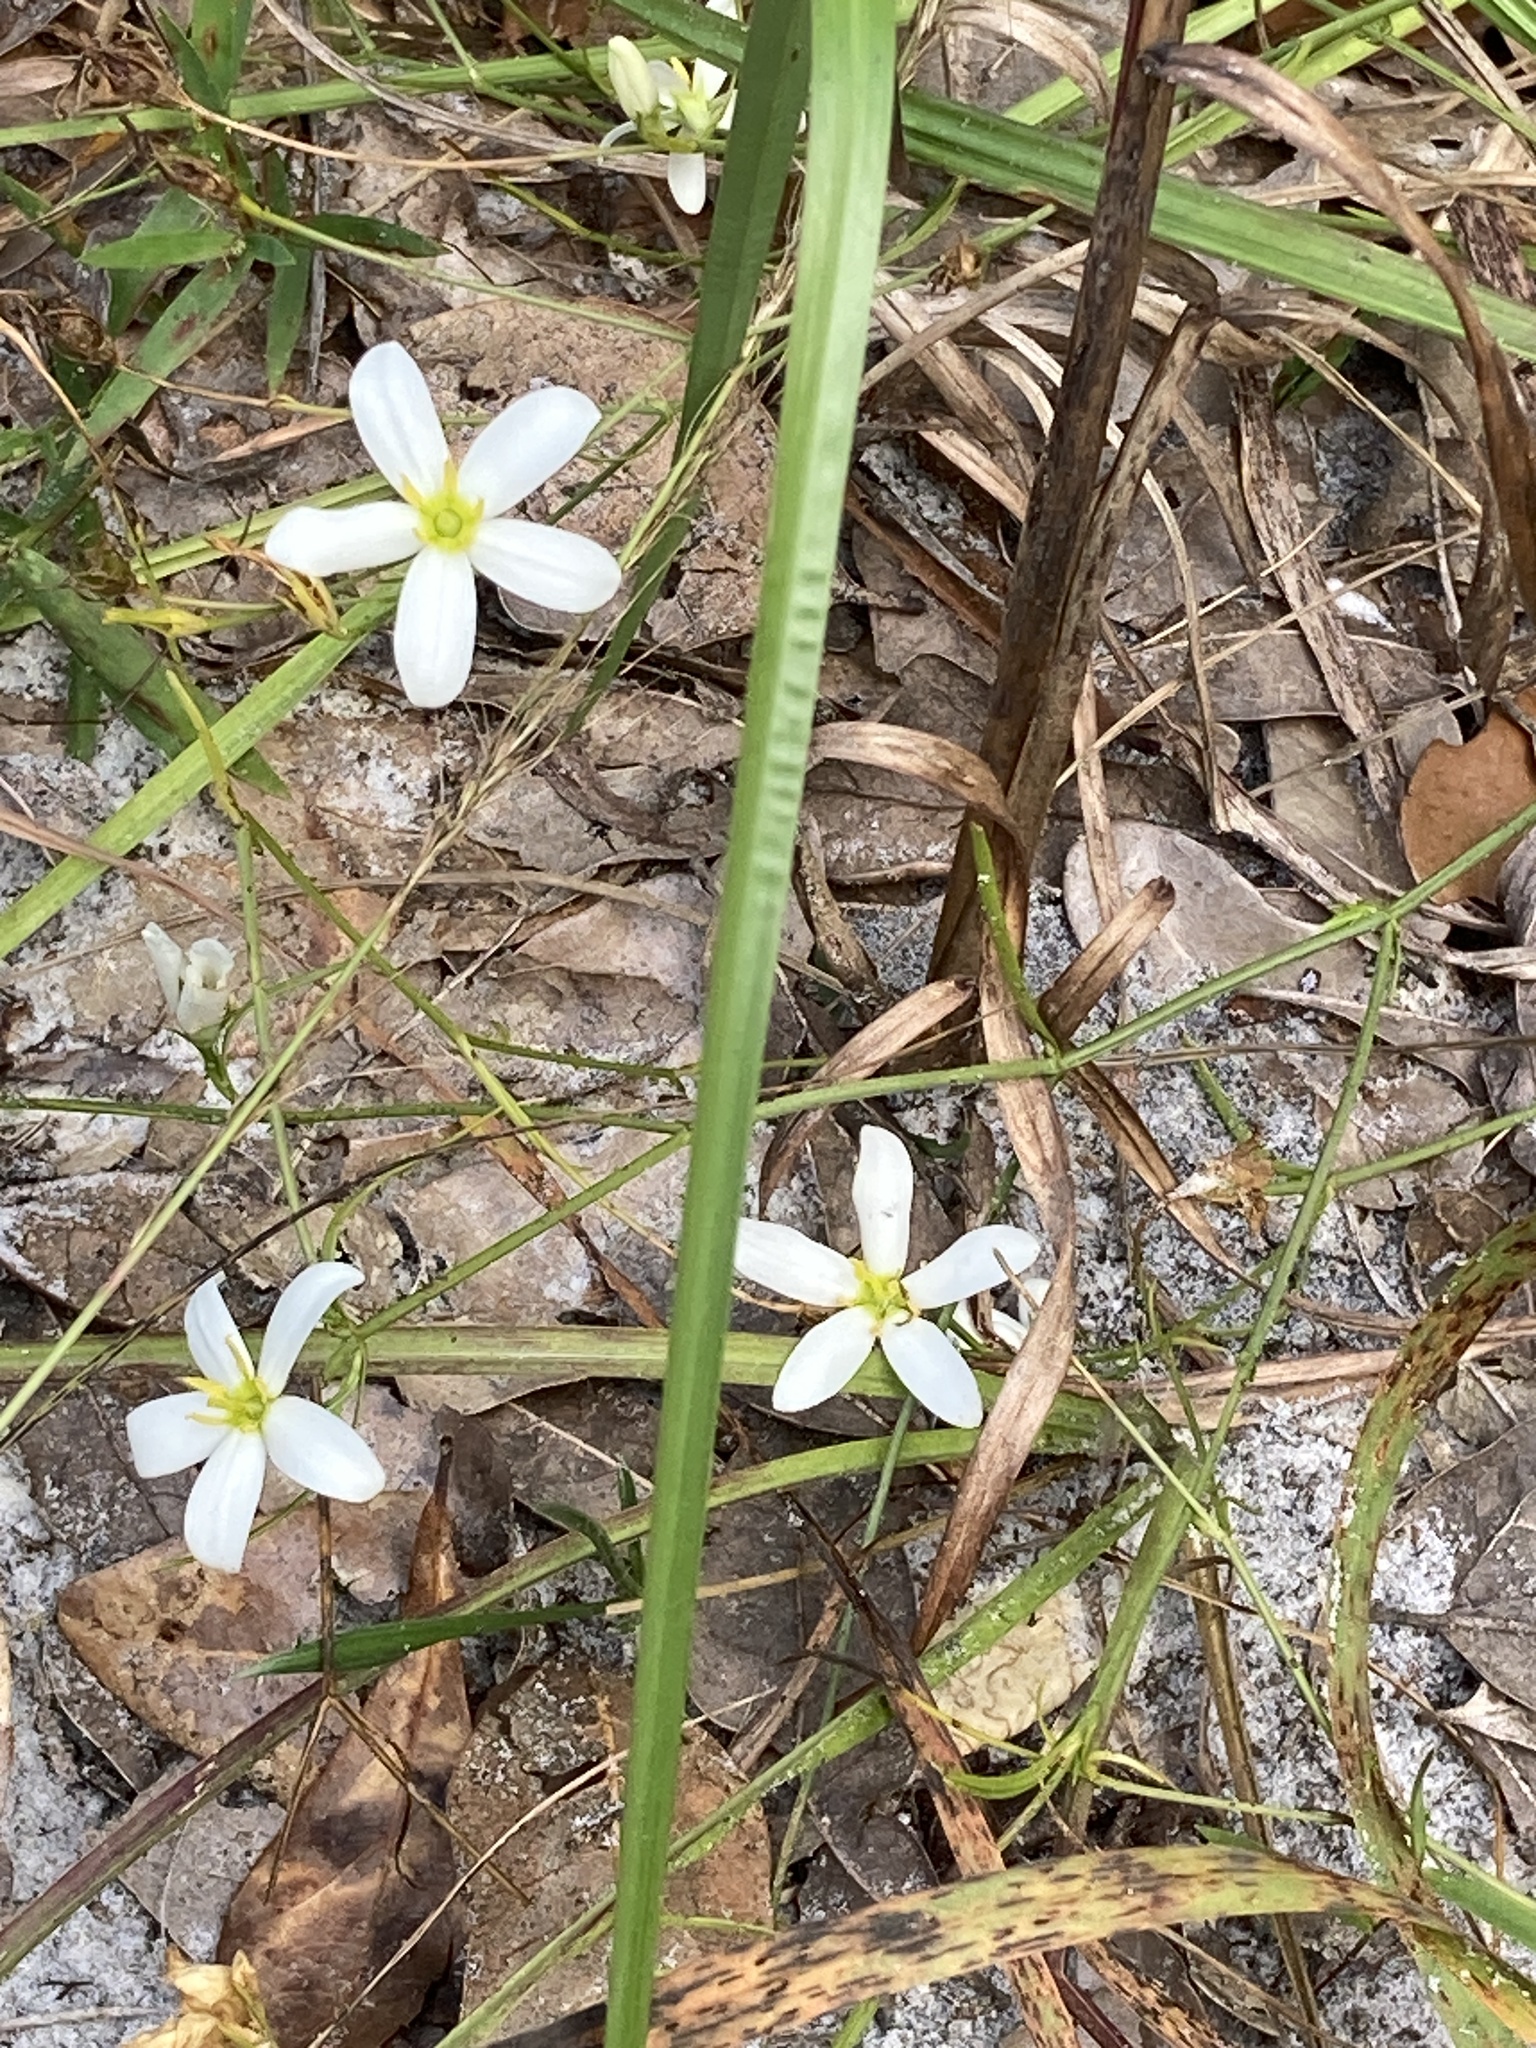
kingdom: Plantae
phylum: Tracheophyta
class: Magnoliopsida
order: Gentianales
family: Gentianaceae
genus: Sabatia
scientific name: Sabatia brevifolia
